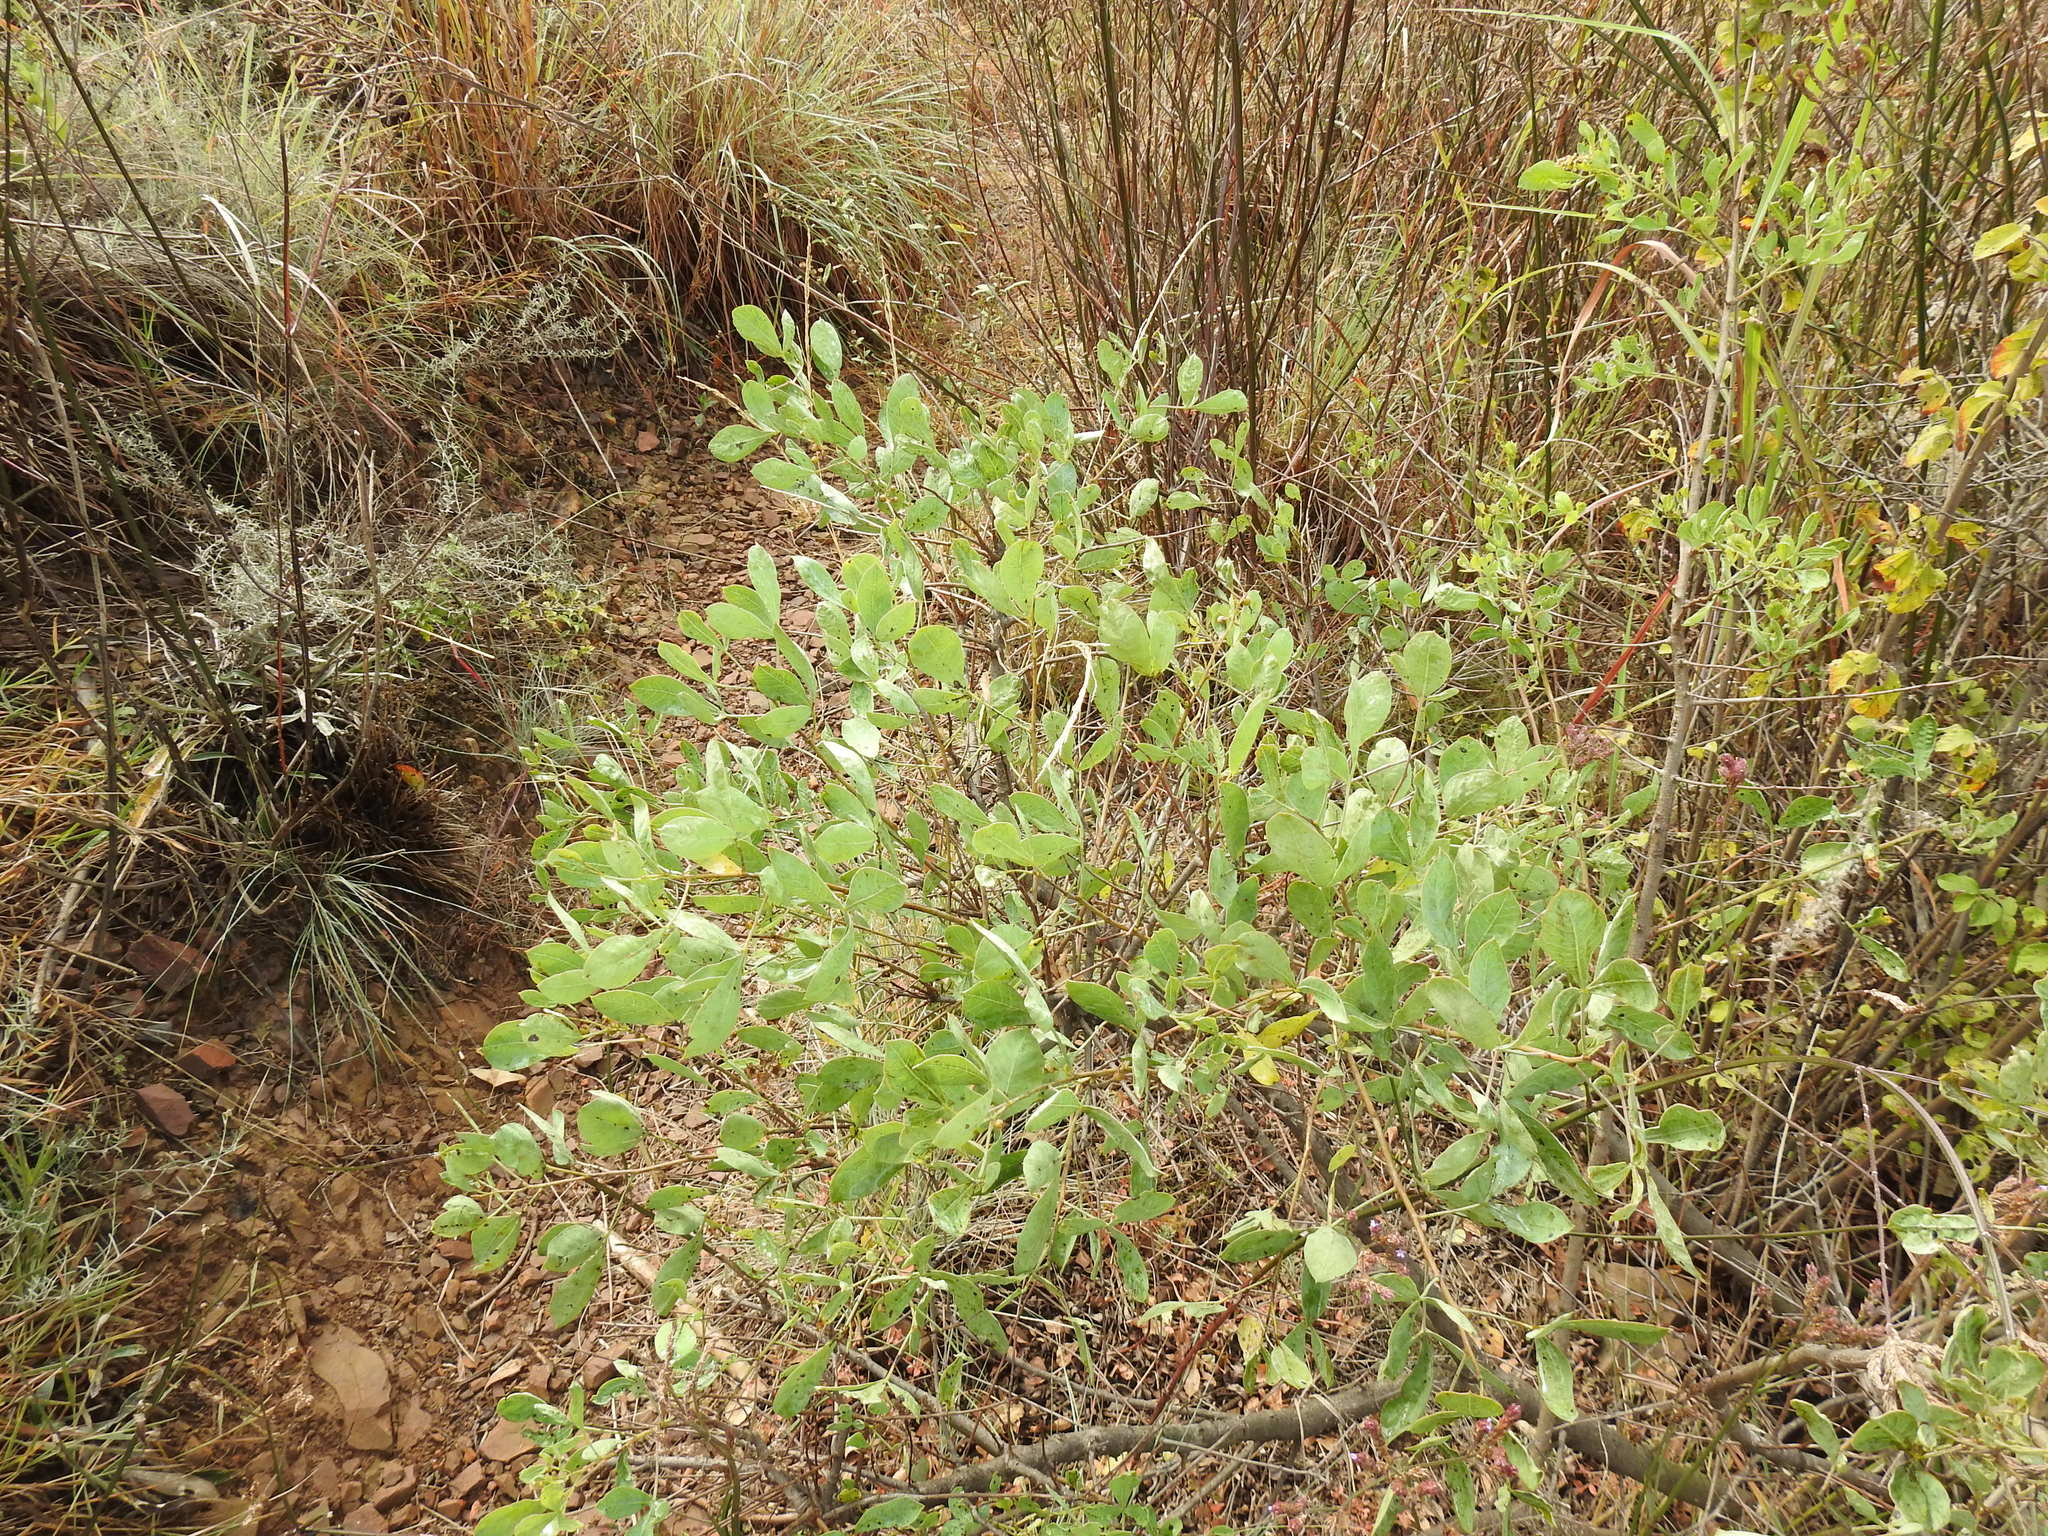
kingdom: Plantae
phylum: Tracheophyta
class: Magnoliopsida
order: Sapindales
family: Anacardiaceae
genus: Searsia
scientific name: Searsia zeyheri
